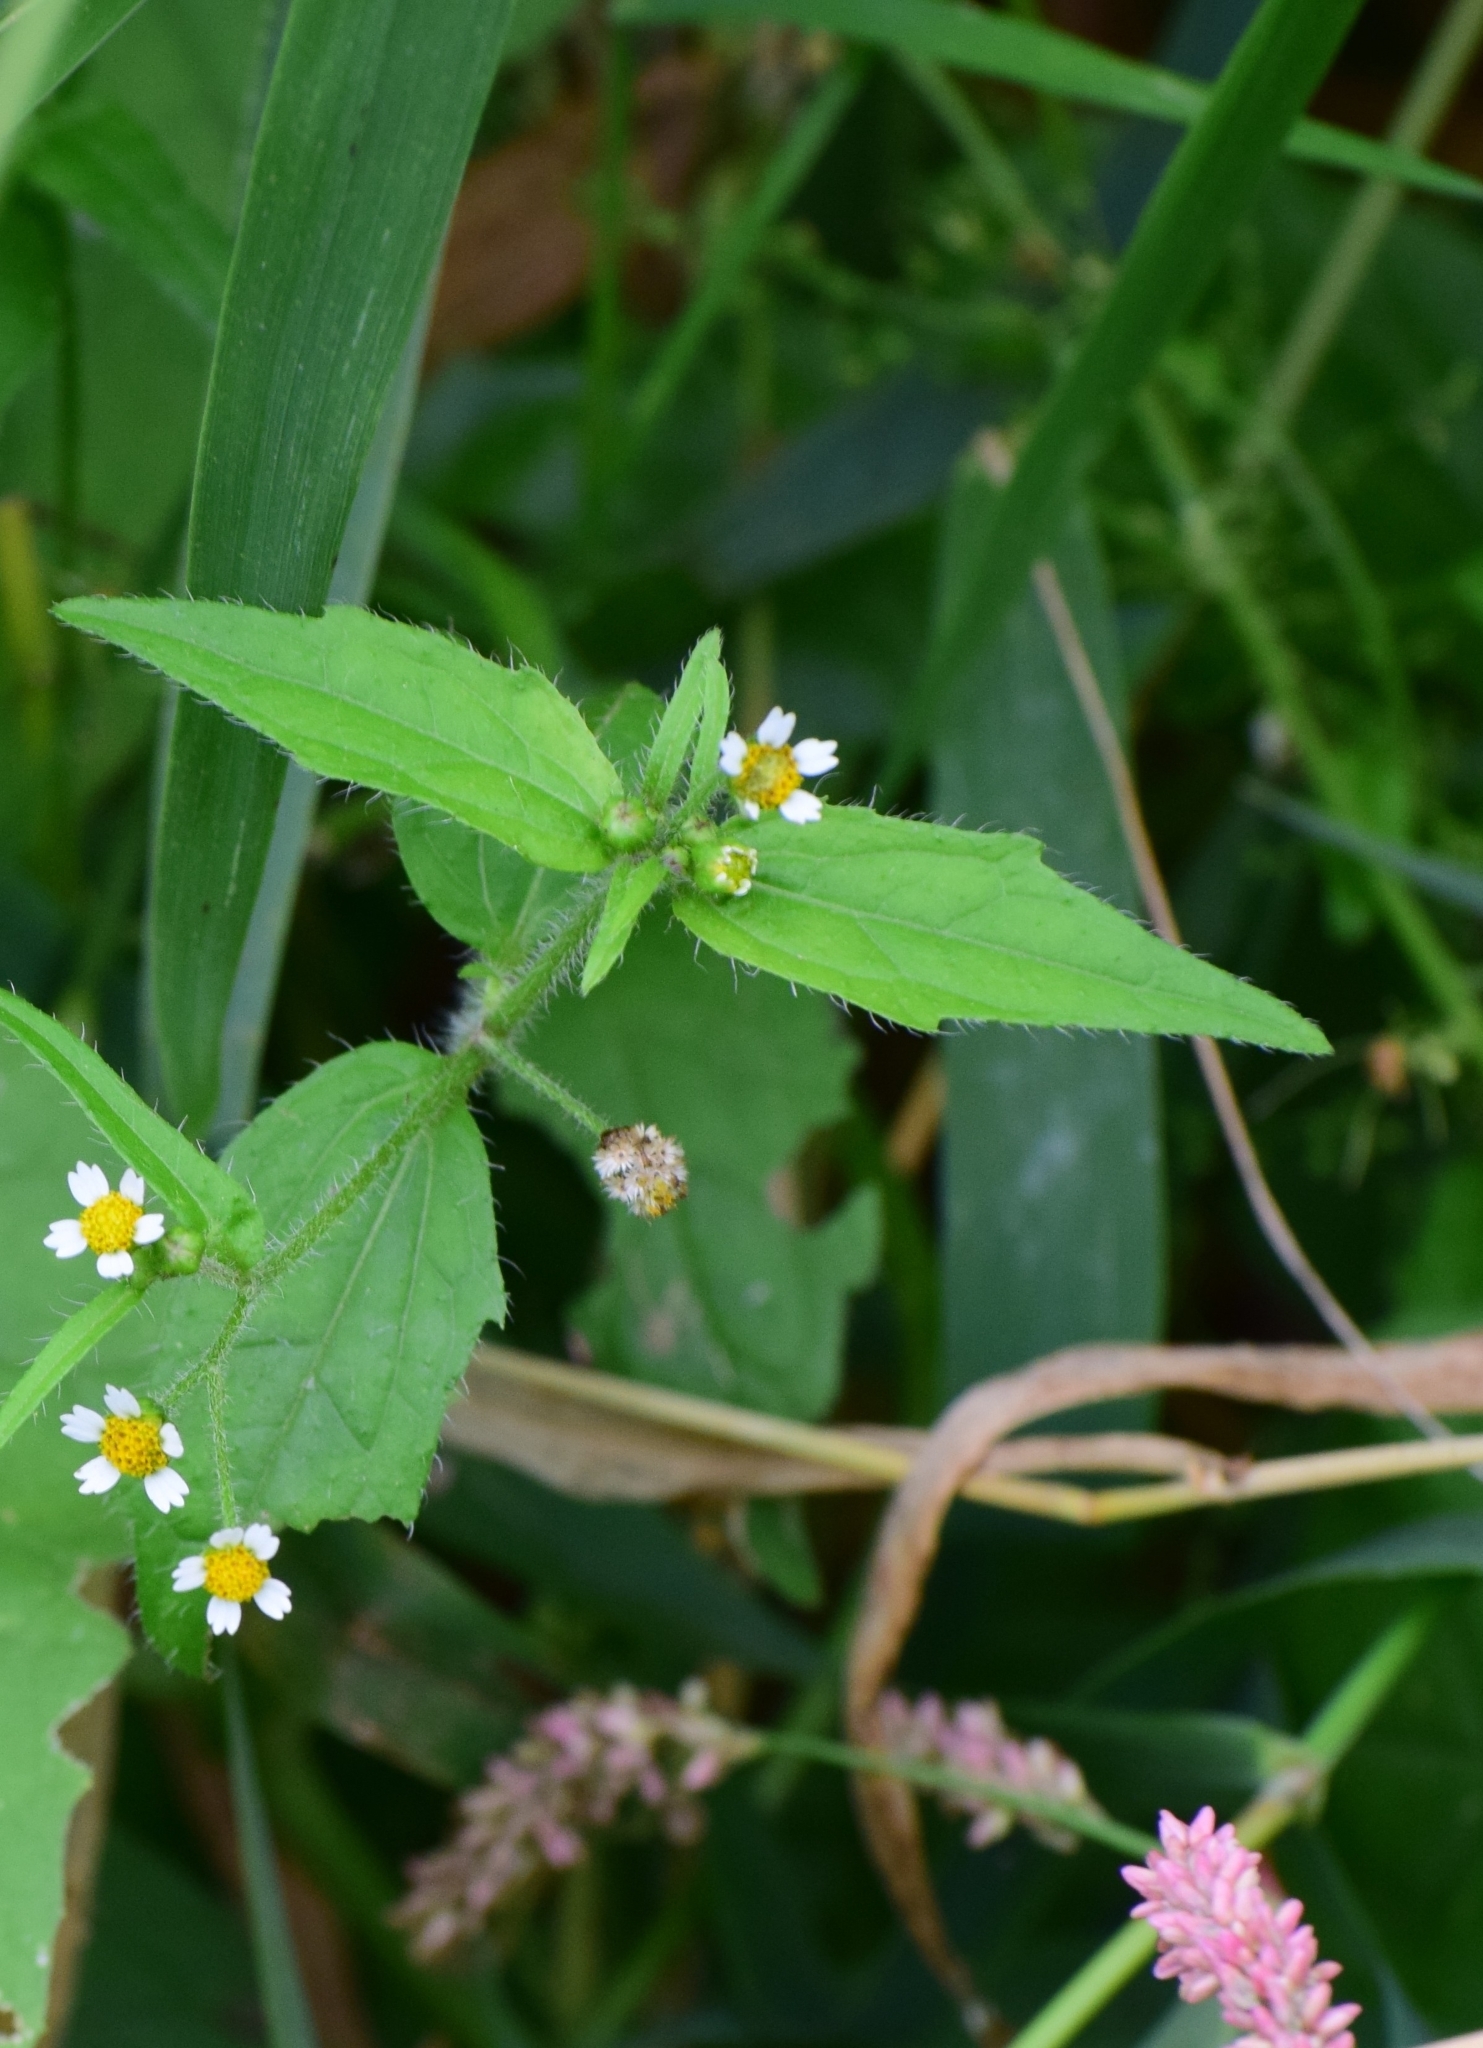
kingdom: Plantae
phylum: Tracheophyta
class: Magnoliopsida
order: Asterales
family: Asteraceae
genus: Galinsoga
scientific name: Galinsoga quadriradiata
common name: Shaggy soldier
